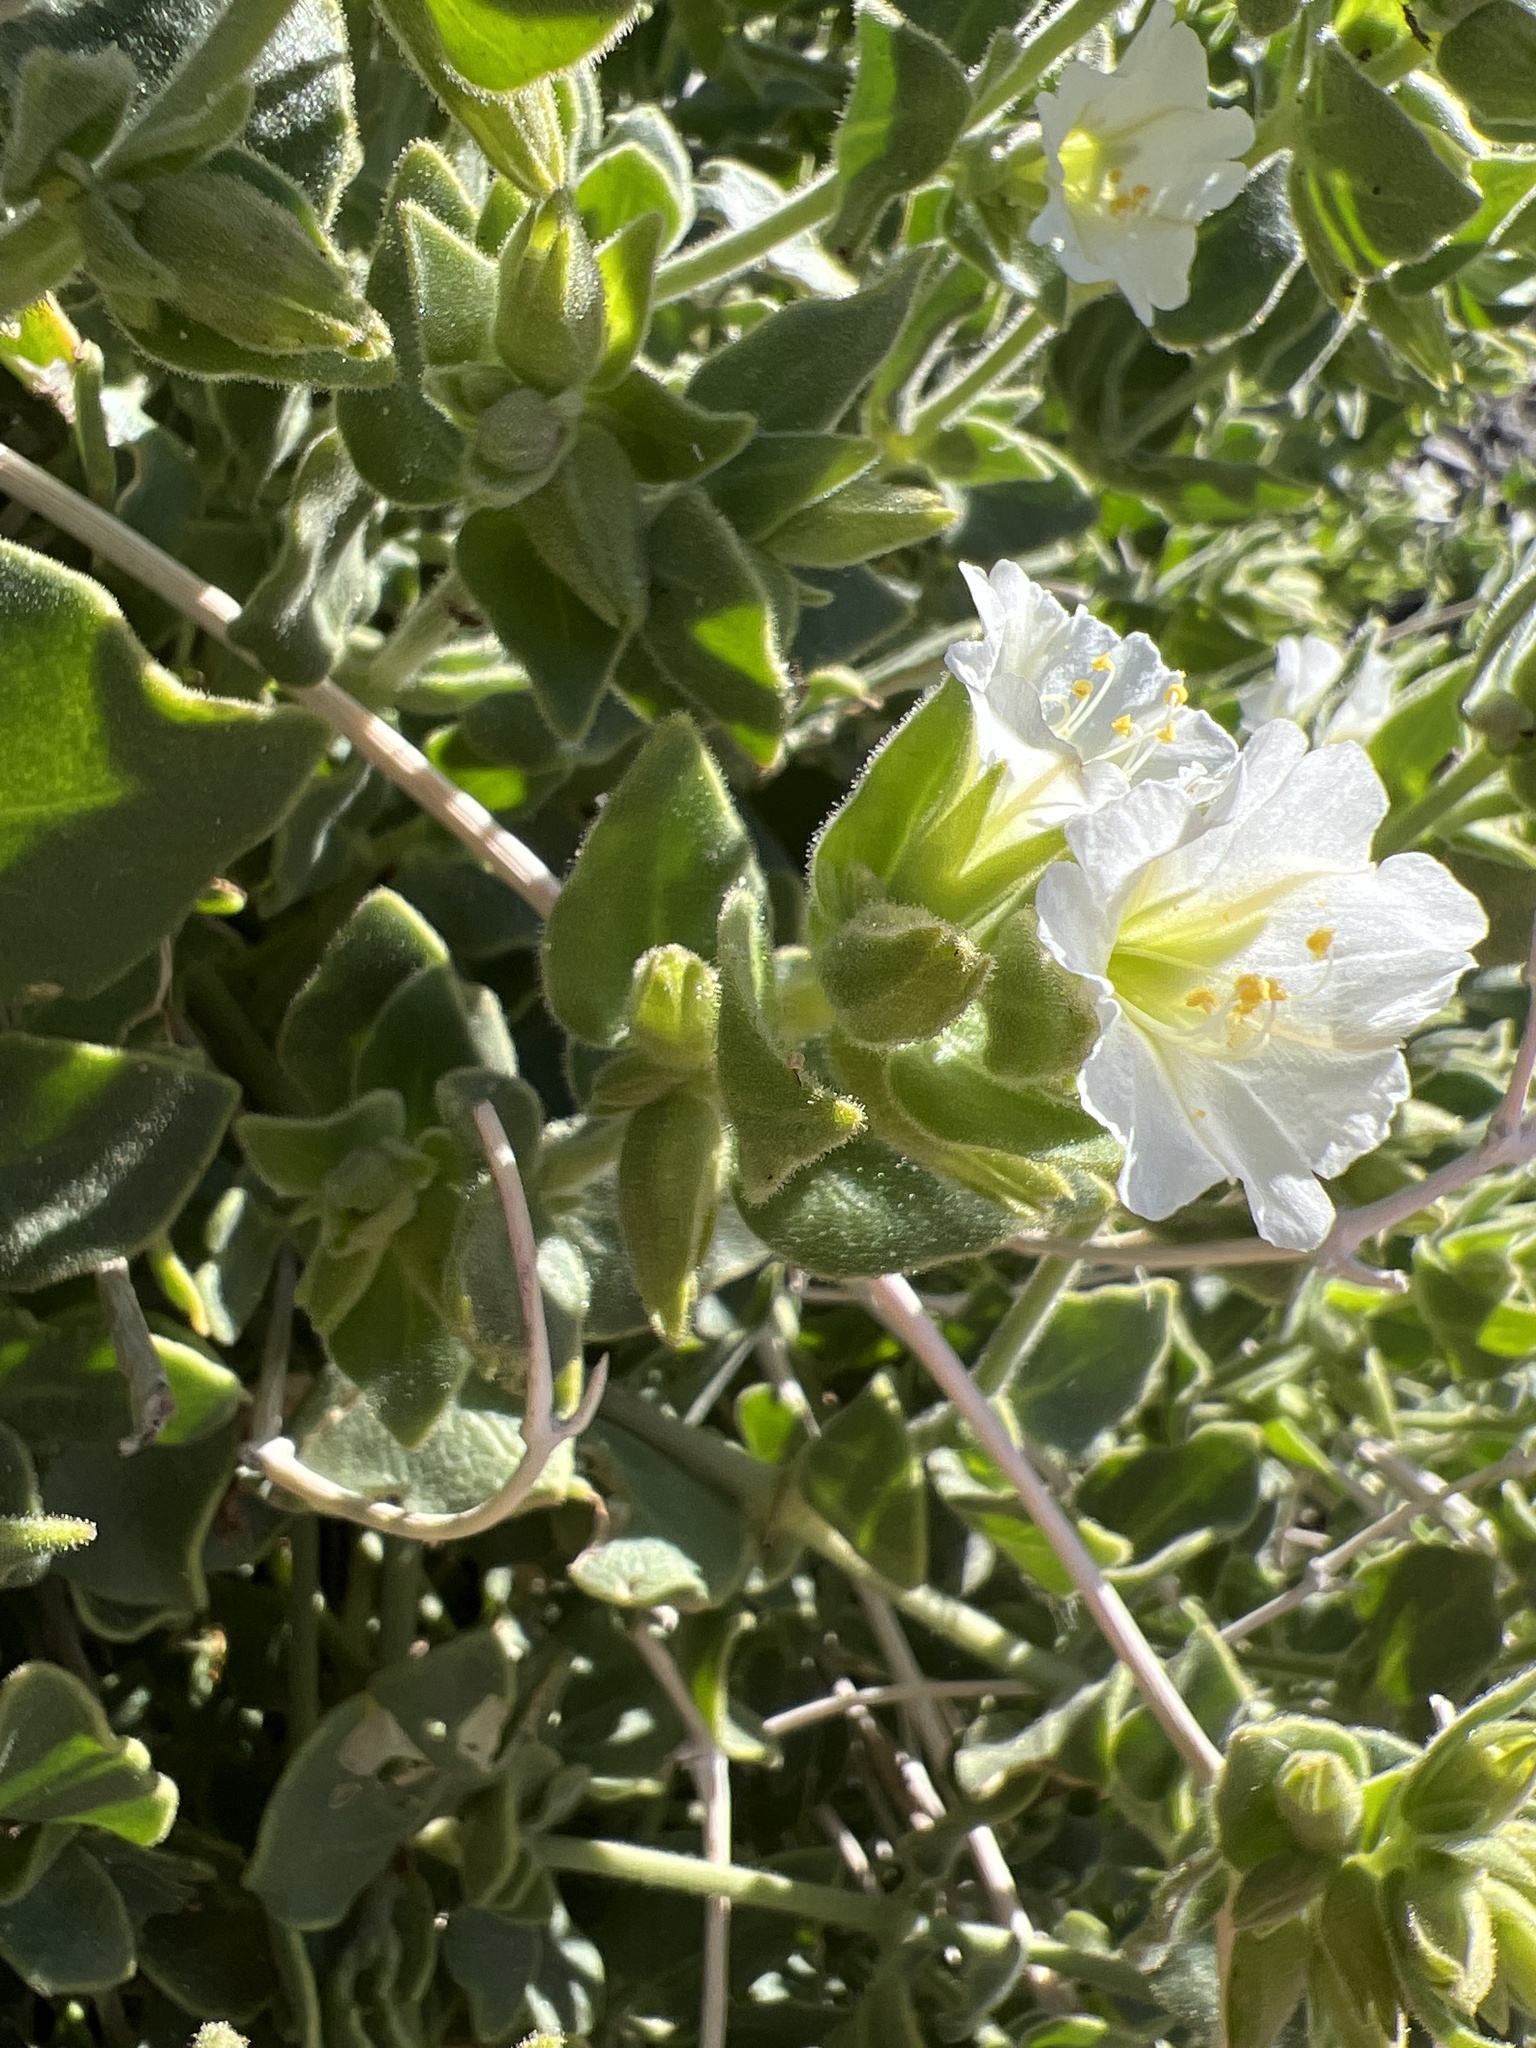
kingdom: Plantae
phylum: Tracheophyta
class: Magnoliopsida
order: Caryophyllales
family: Nyctaginaceae
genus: Mirabilis
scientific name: Mirabilis tenuiloba
